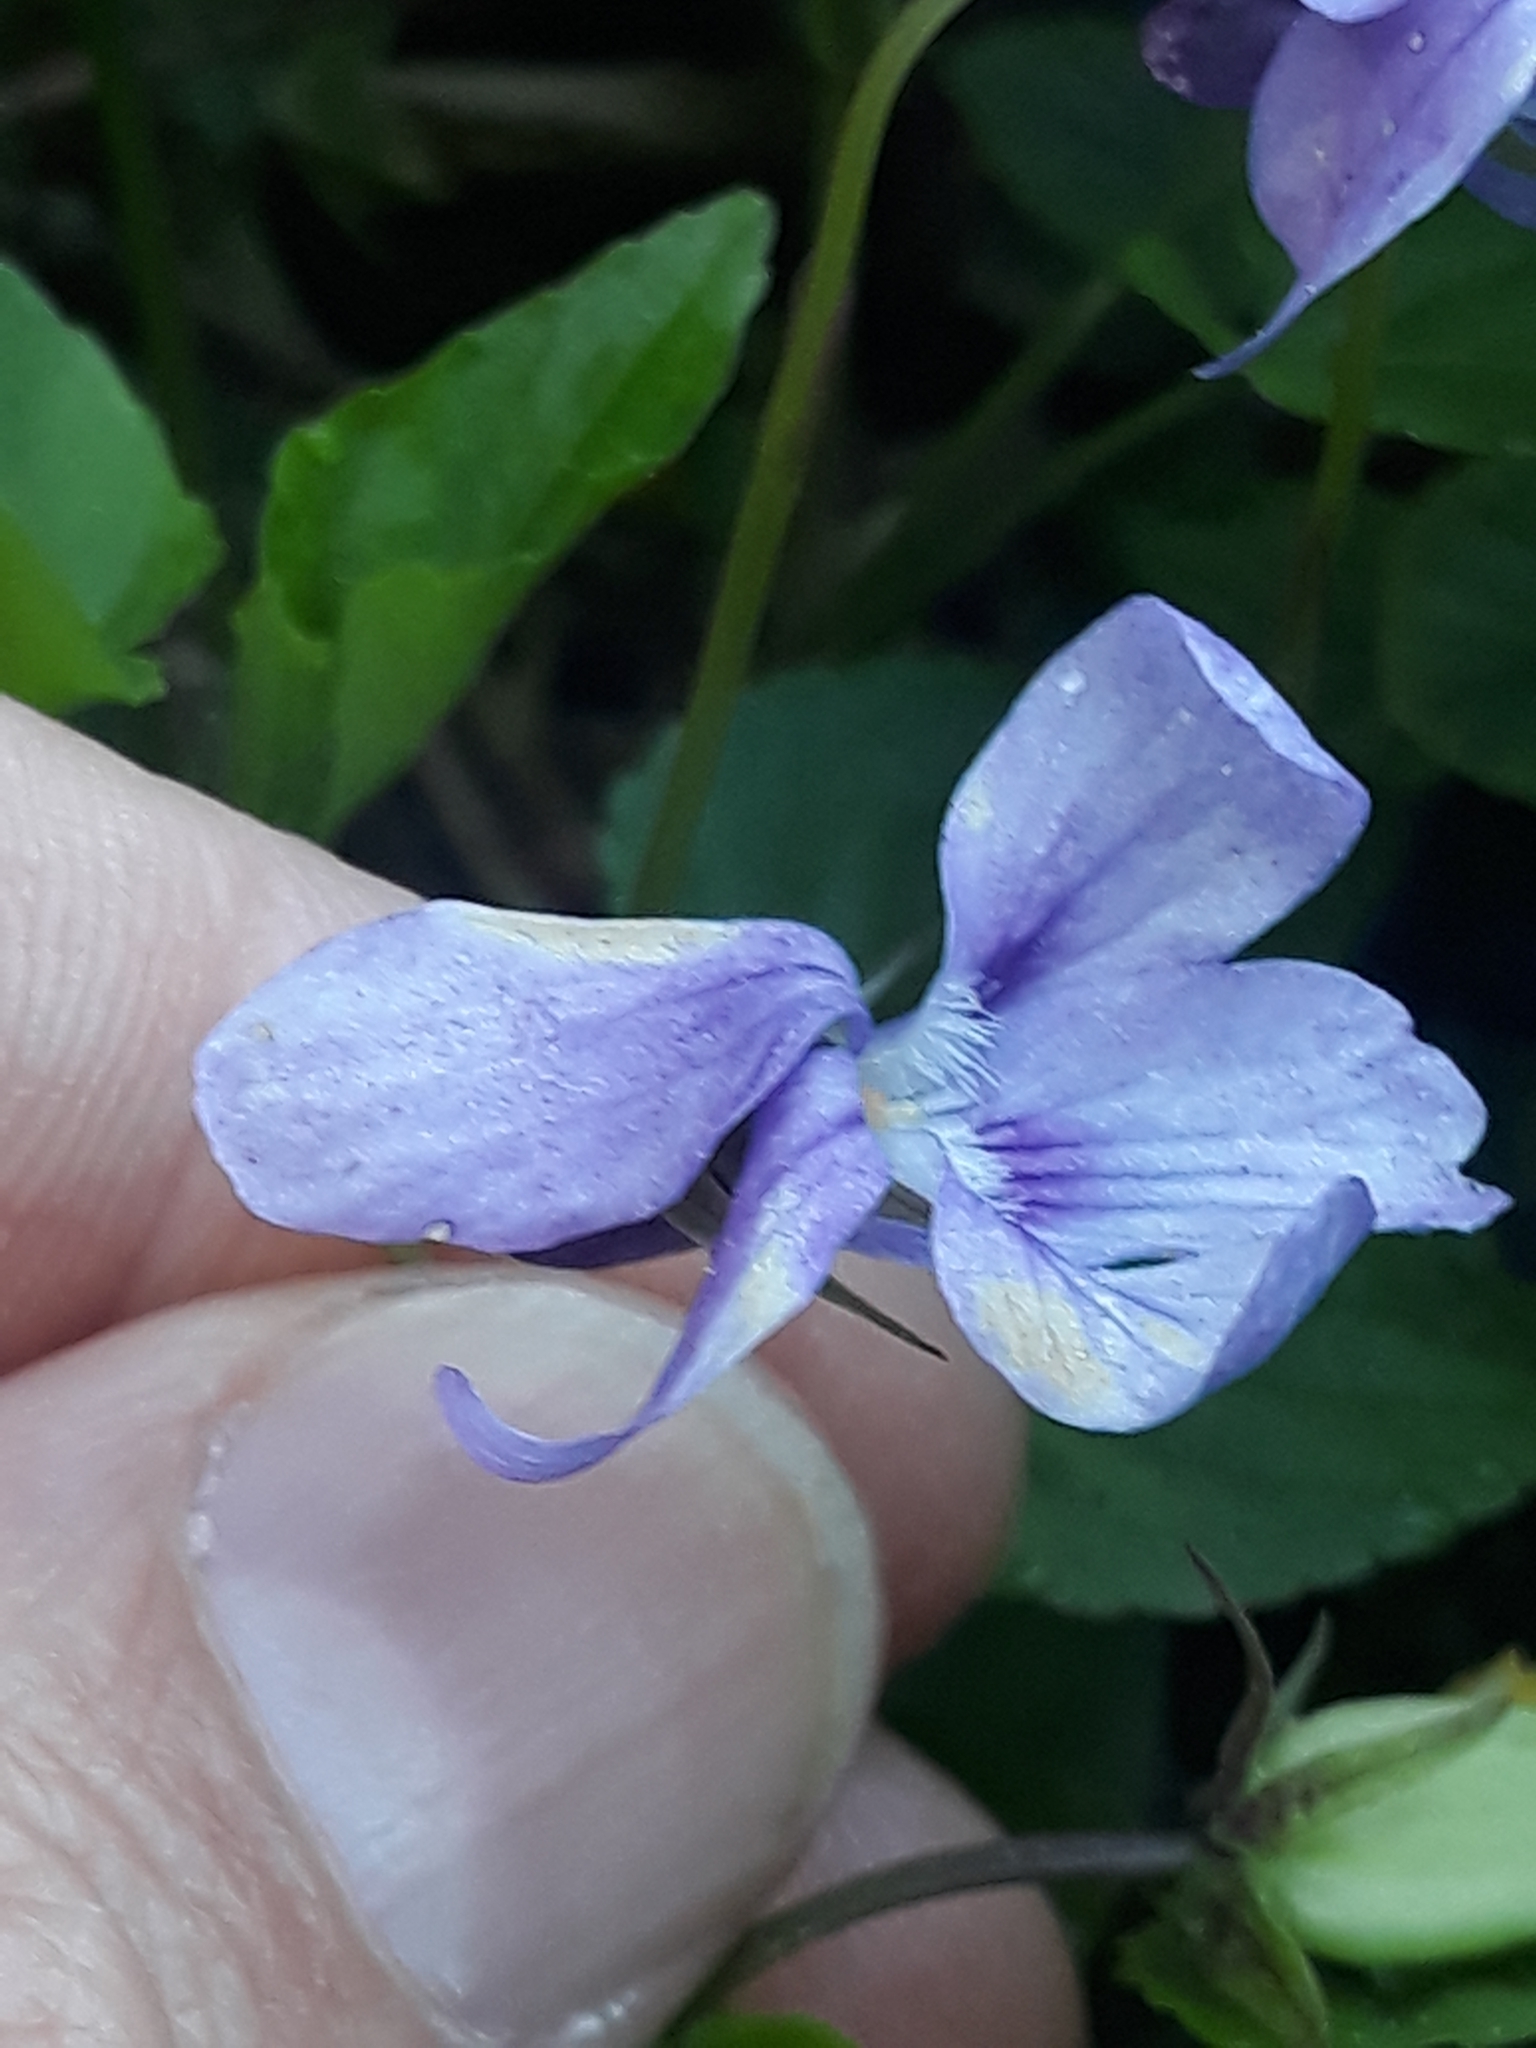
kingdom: Plantae
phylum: Tracheophyta
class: Magnoliopsida
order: Malpighiales
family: Violaceae
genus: Viola
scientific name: Viola reichenbachiana
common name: Early dog-violet
